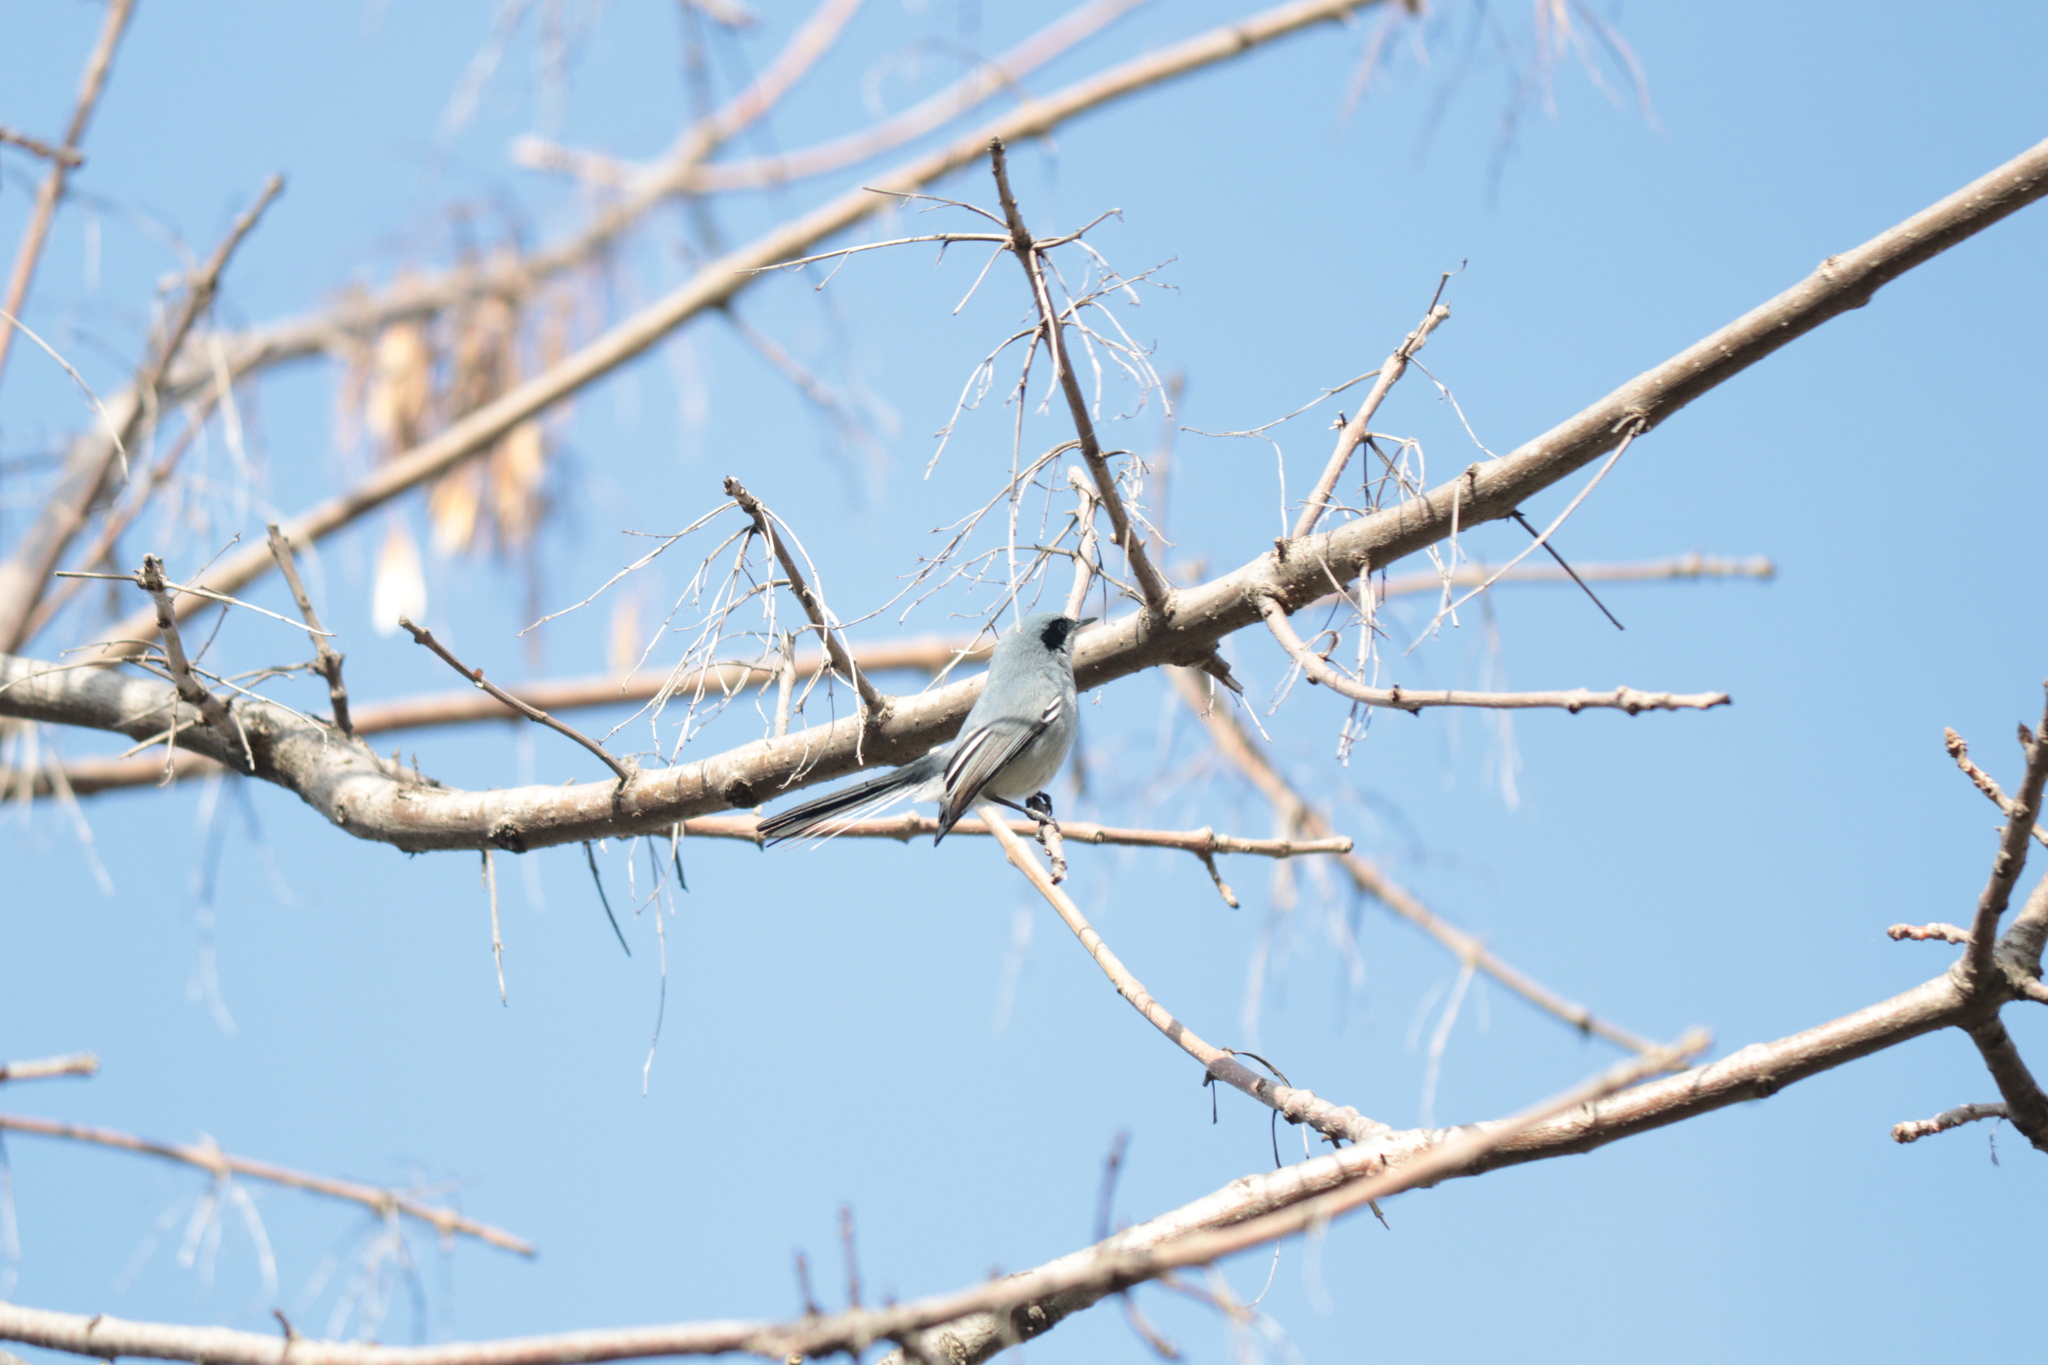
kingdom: Animalia
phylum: Chordata
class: Aves
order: Passeriformes
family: Polioptilidae
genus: Polioptila
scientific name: Polioptila dumicola
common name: Masked gnatcatcher
